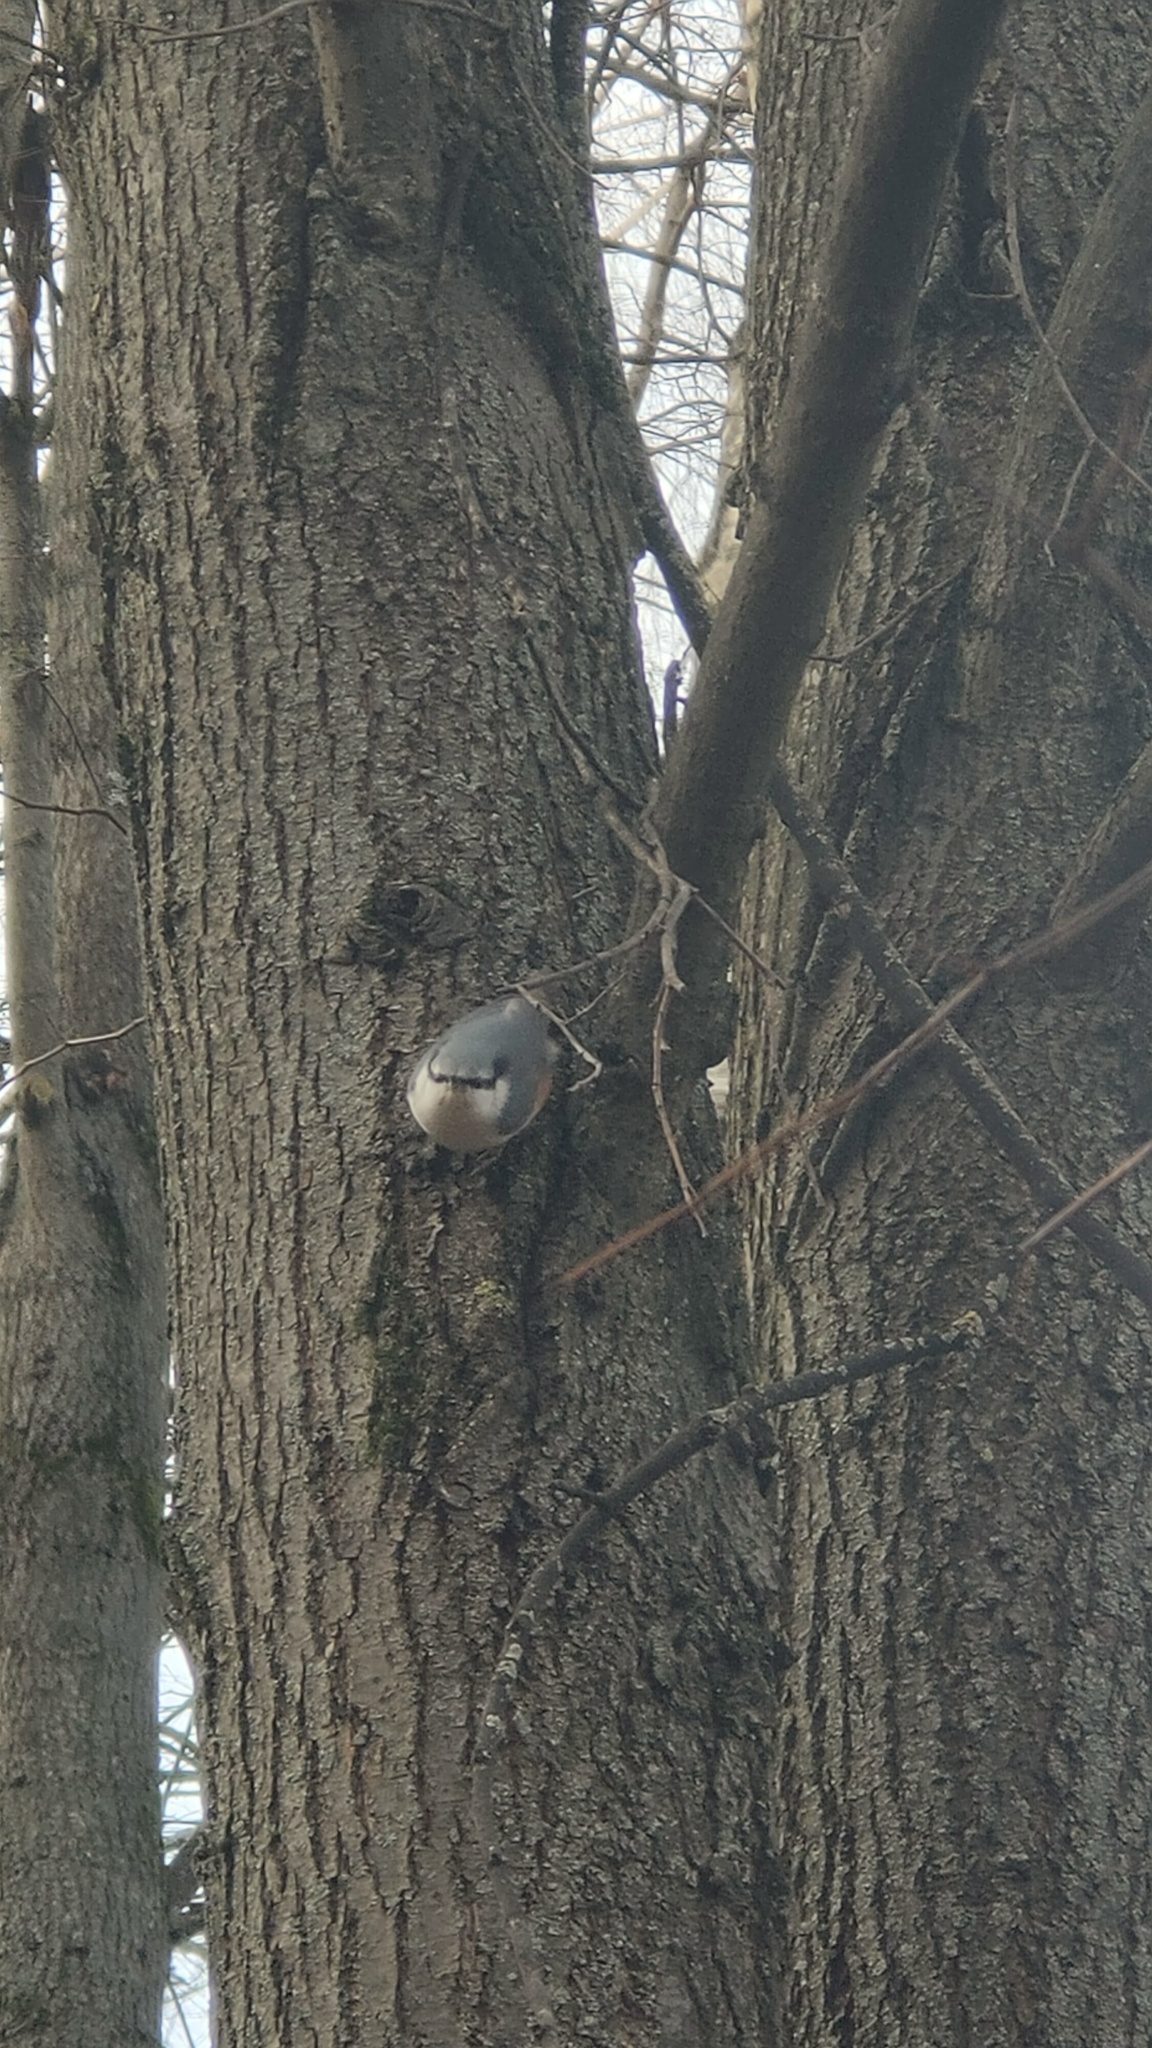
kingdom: Animalia
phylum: Chordata
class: Aves
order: Passeriformes
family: Sittidae
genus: Sitta
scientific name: Sitta europaea
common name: Eurasian nuthatch
